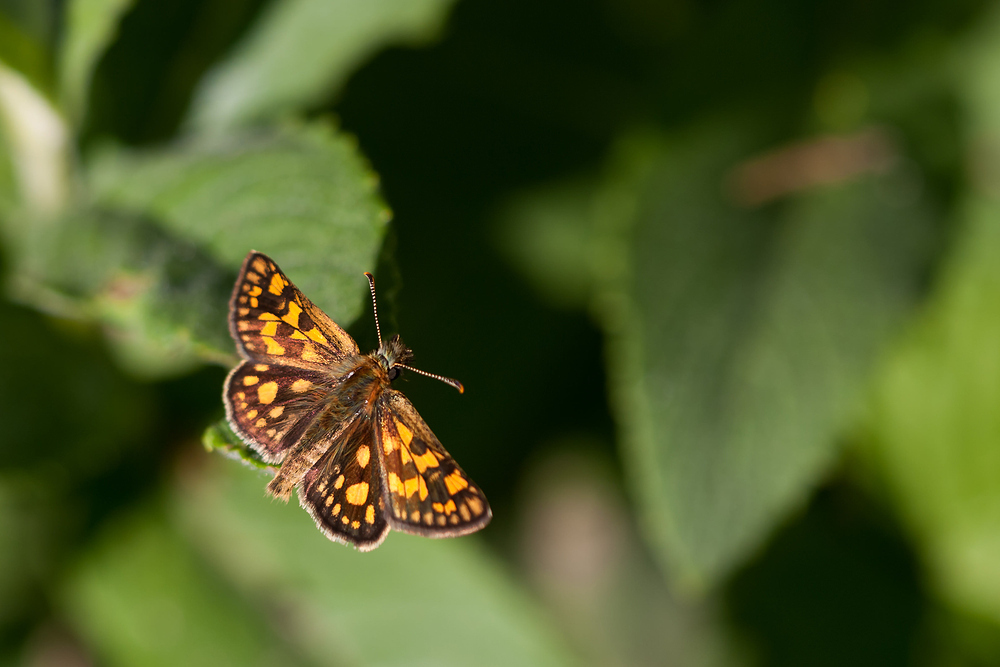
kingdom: Animalia
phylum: Arthropoda
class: Insecta
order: Lepidoptera
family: Hesperiidae
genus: Carterocephalus
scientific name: Carterocephalus palaemon
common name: Chequered skipper
